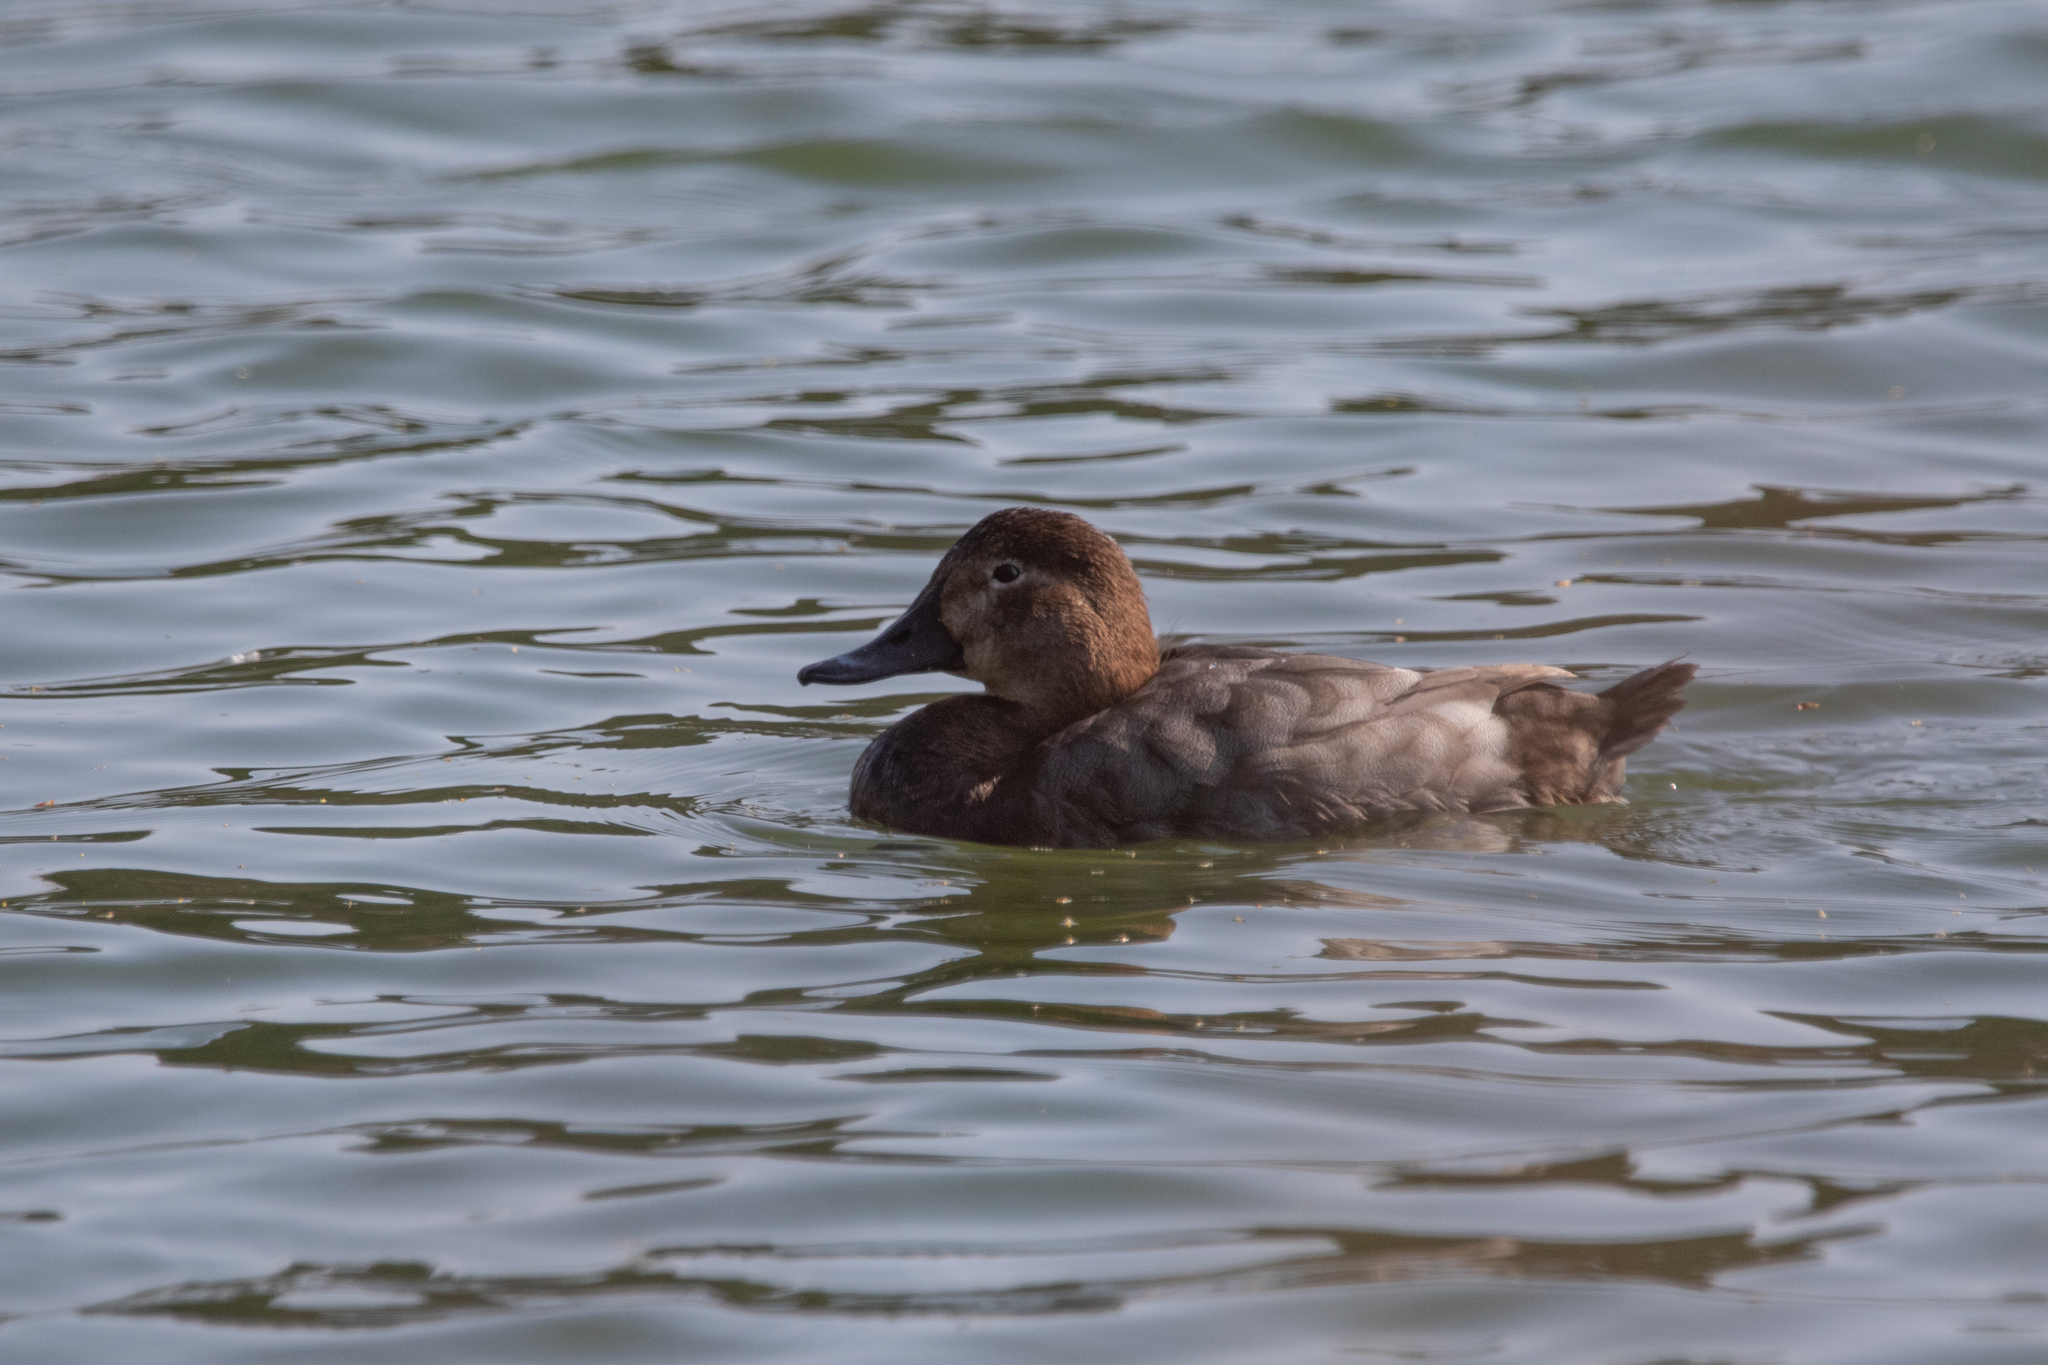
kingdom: Animalia
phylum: Chordata
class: Aves
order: Anseriformes
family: Anatidae
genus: Aythya
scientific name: Aythya ferina
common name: Common pochard
